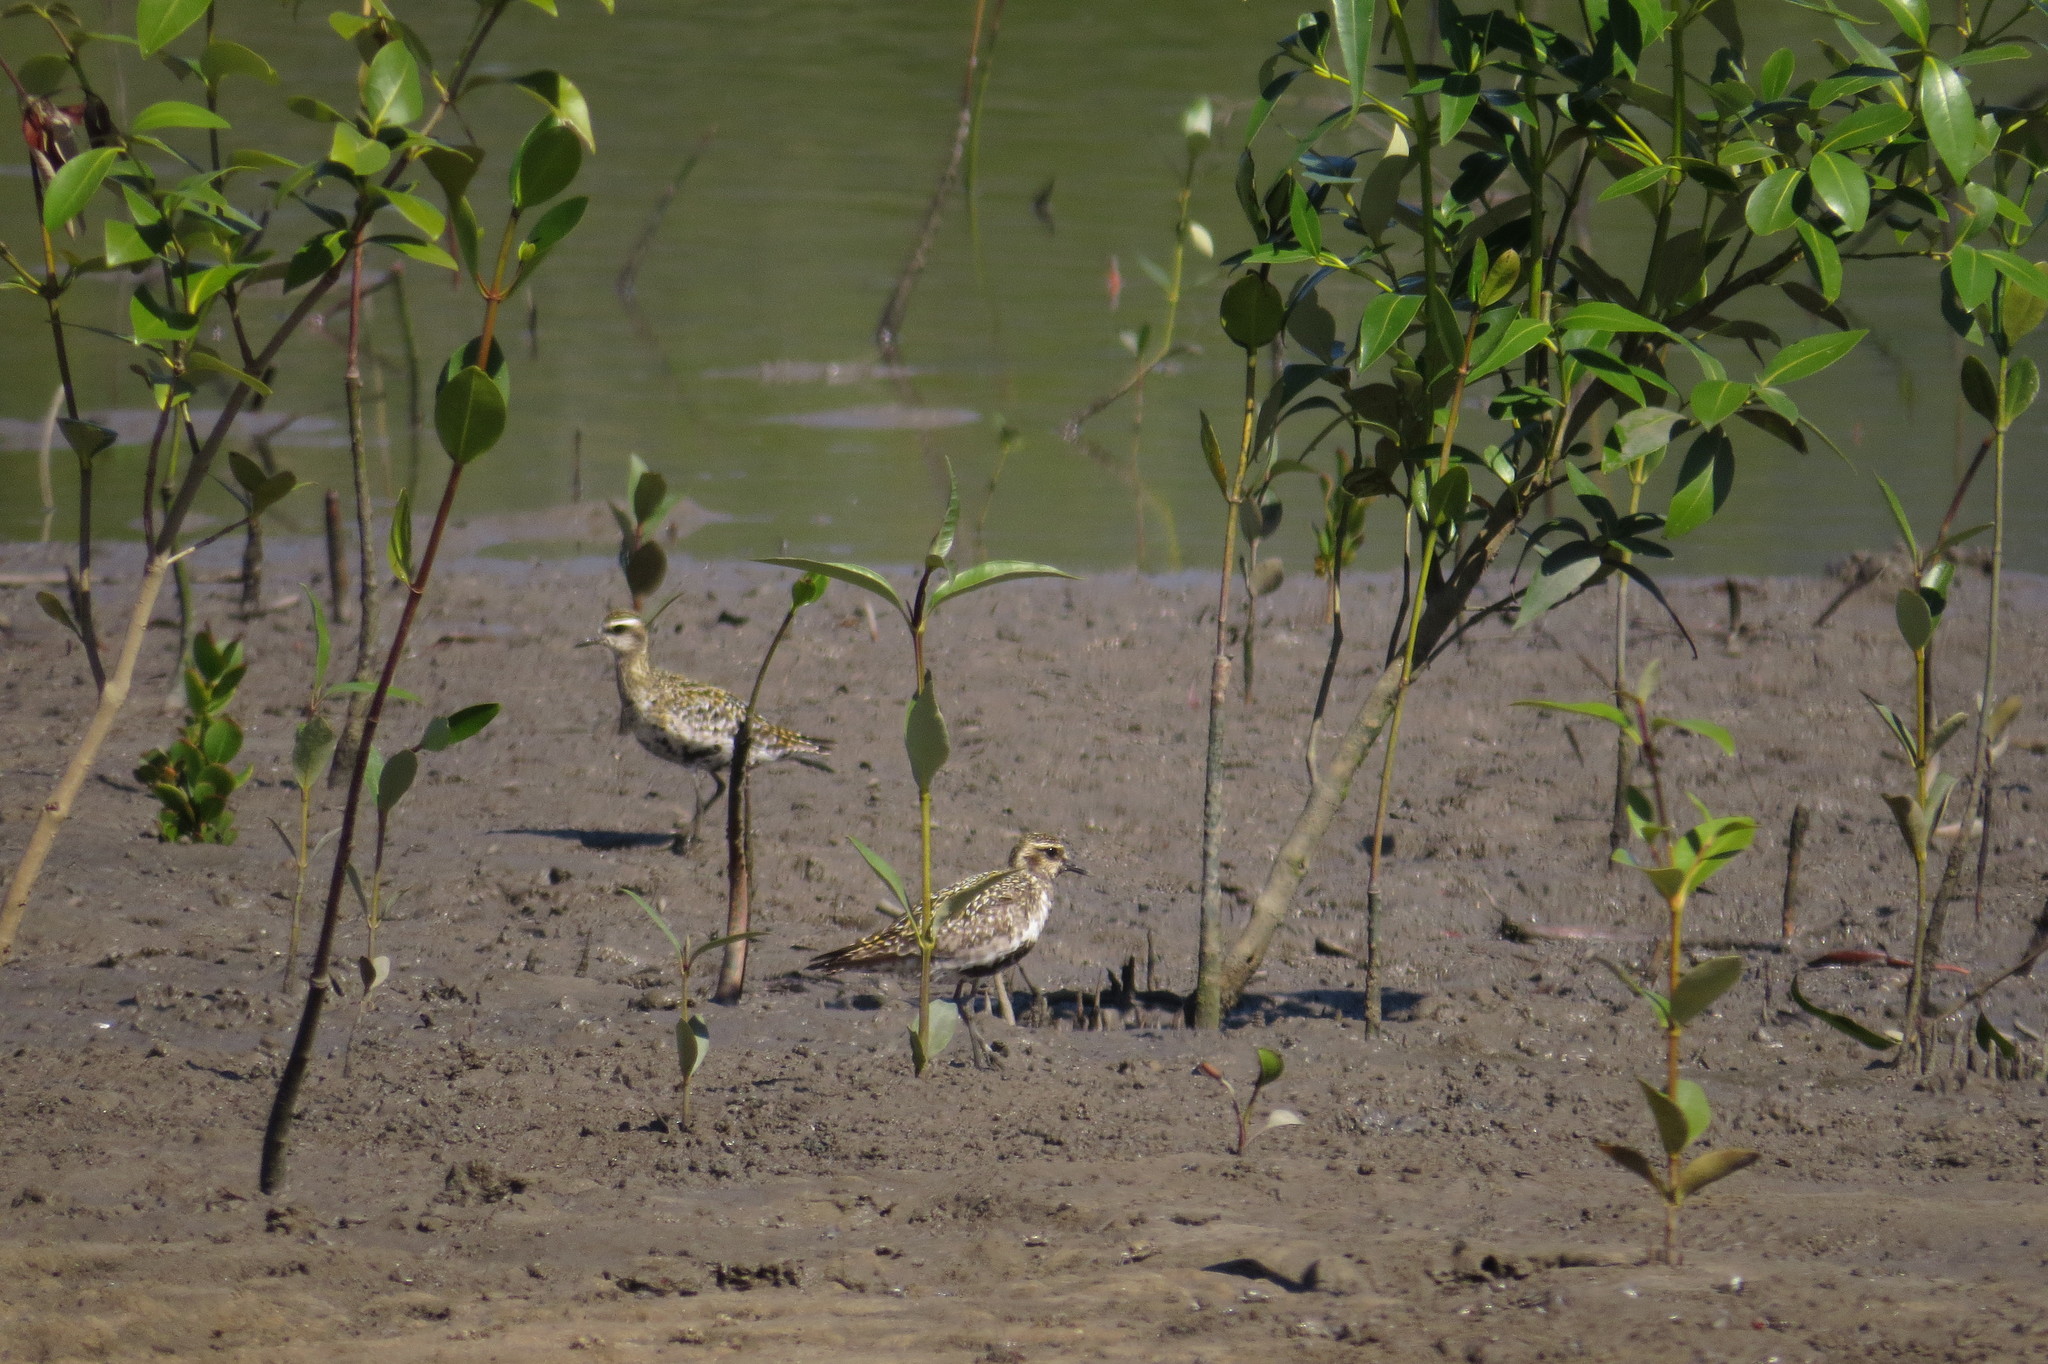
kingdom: Animalia
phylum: Chordata
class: Aves
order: Charadriiformes
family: Charadriidae
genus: Pluvialis
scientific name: Pluvialis fulva
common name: Pacific golden plover
